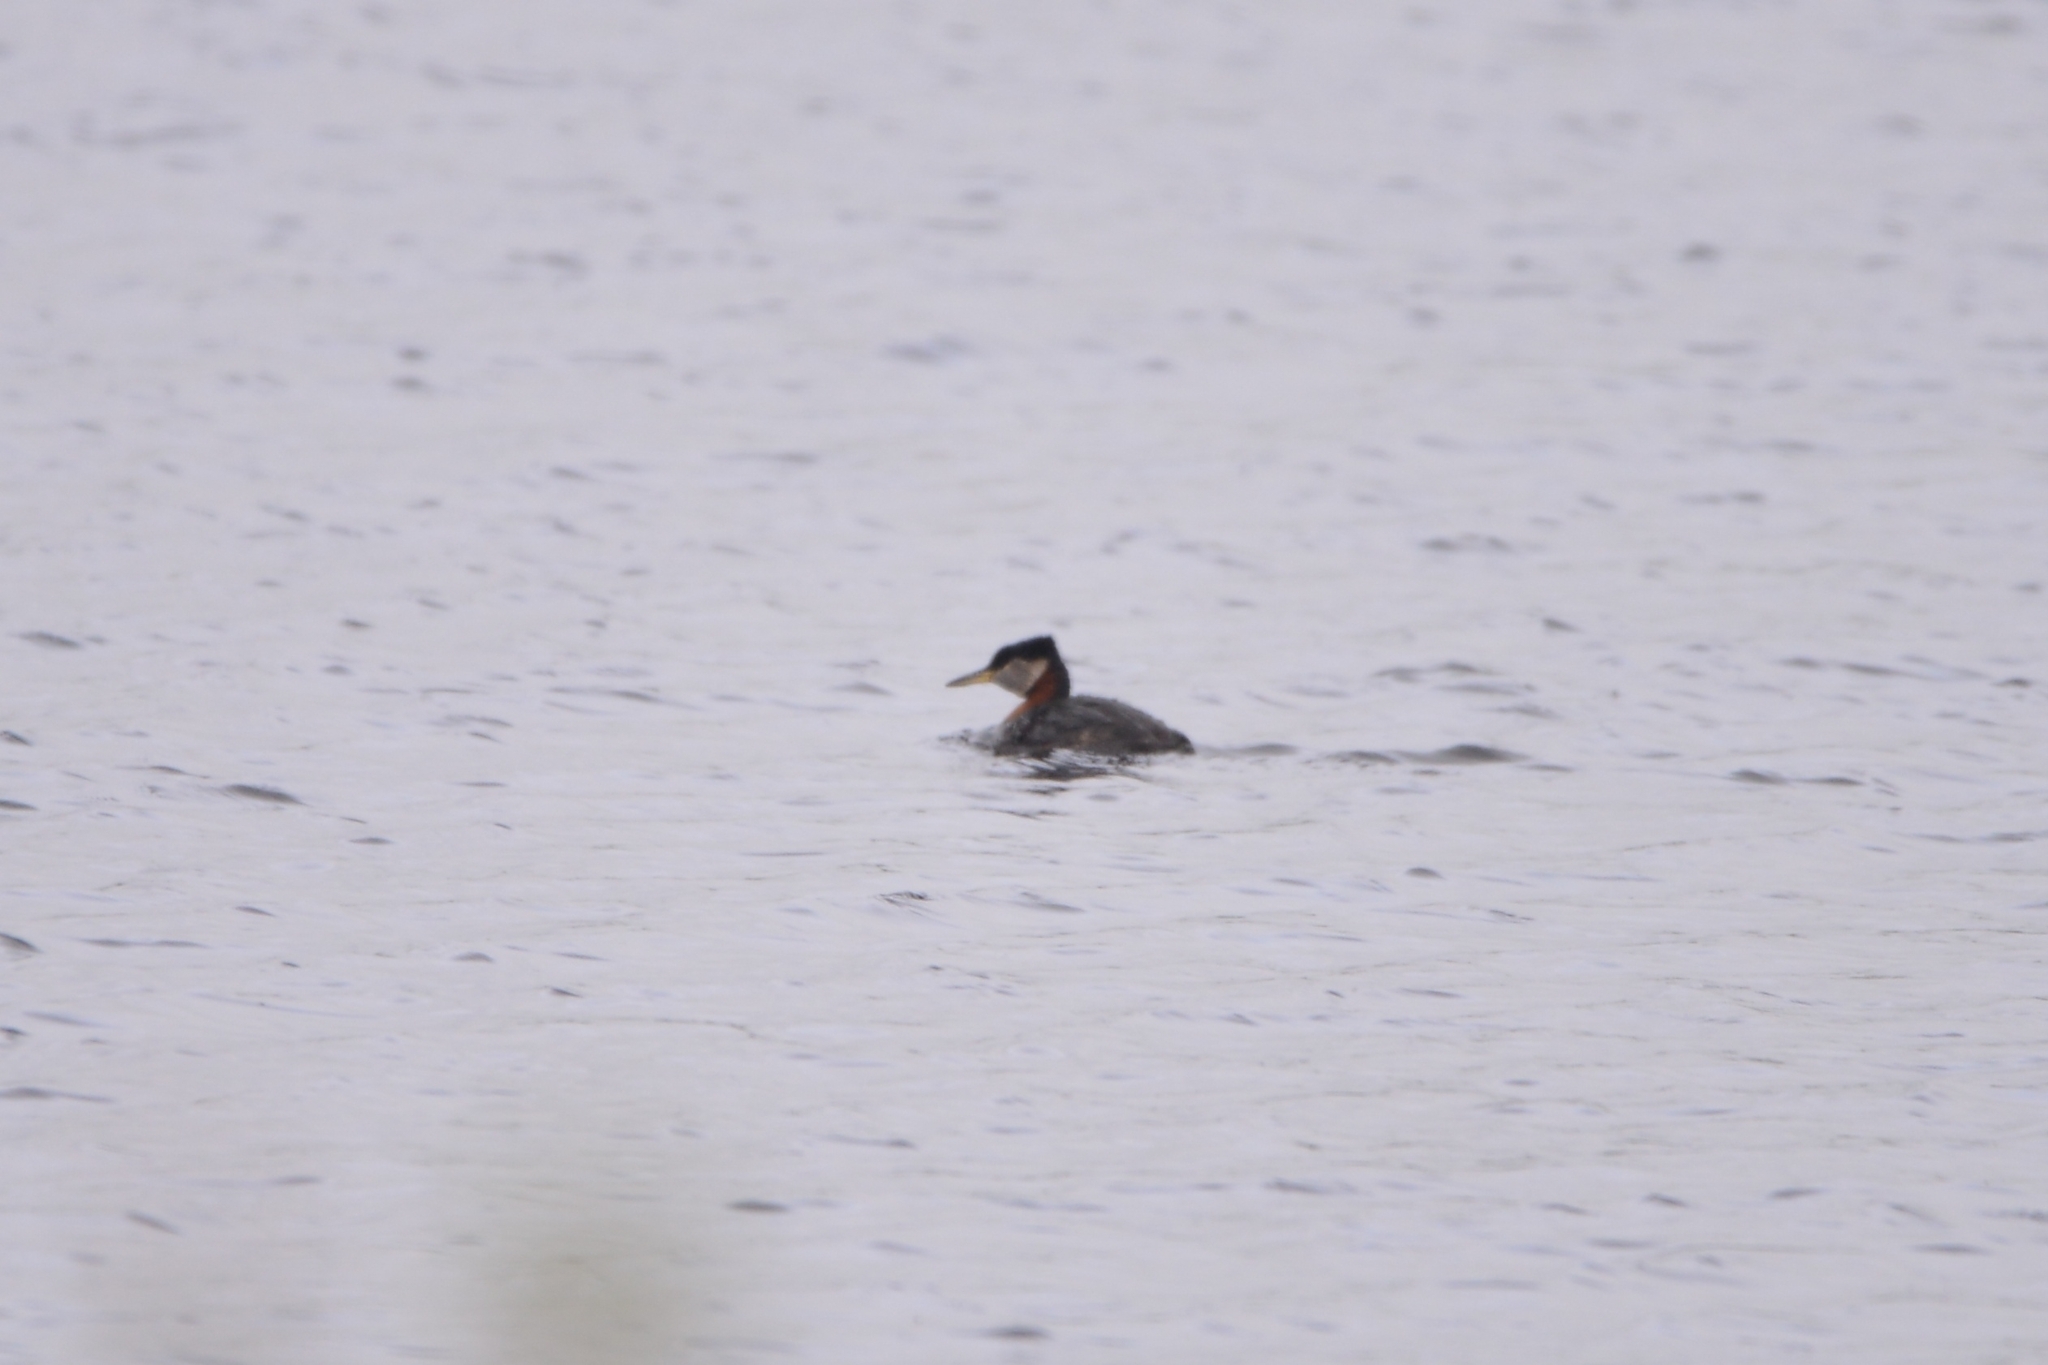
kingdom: Animalia
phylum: Chordata
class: Aves
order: Podicipediformes
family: Podicipedidae
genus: Podiceps
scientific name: Podiceps grisegena
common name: Red-necked grebe
